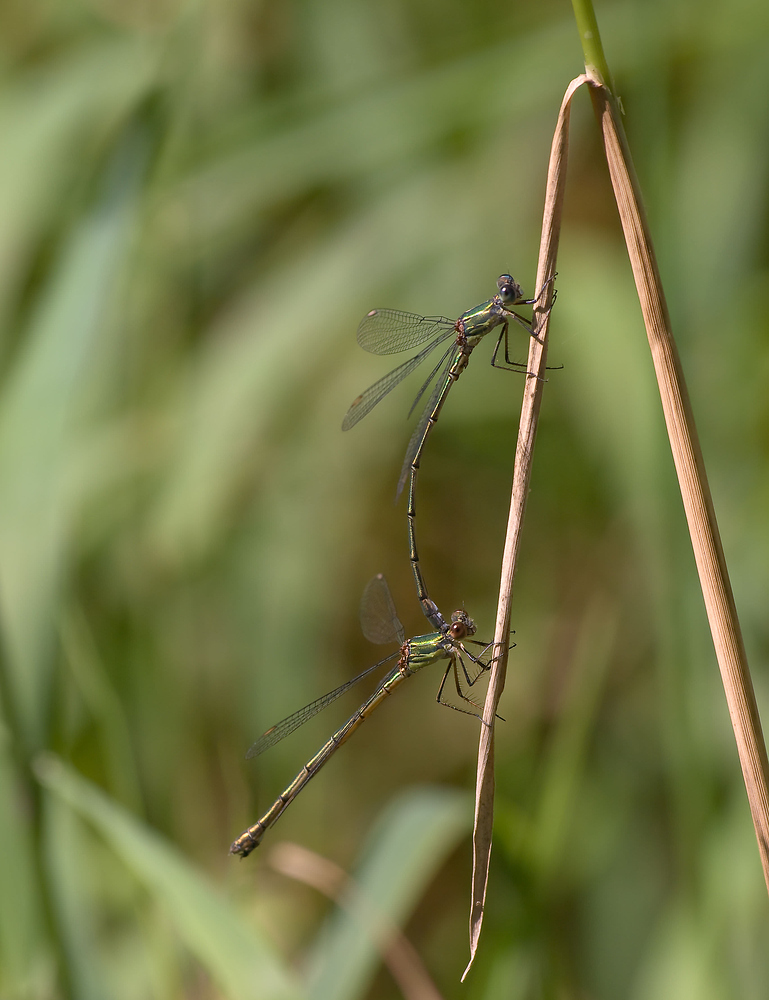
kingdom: Animalia
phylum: Arthropoda
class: Insecta
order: Odonata
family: Lestidae
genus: Chalcolestes
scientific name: Chalcolestes viridis
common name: Green emerald damselfly
